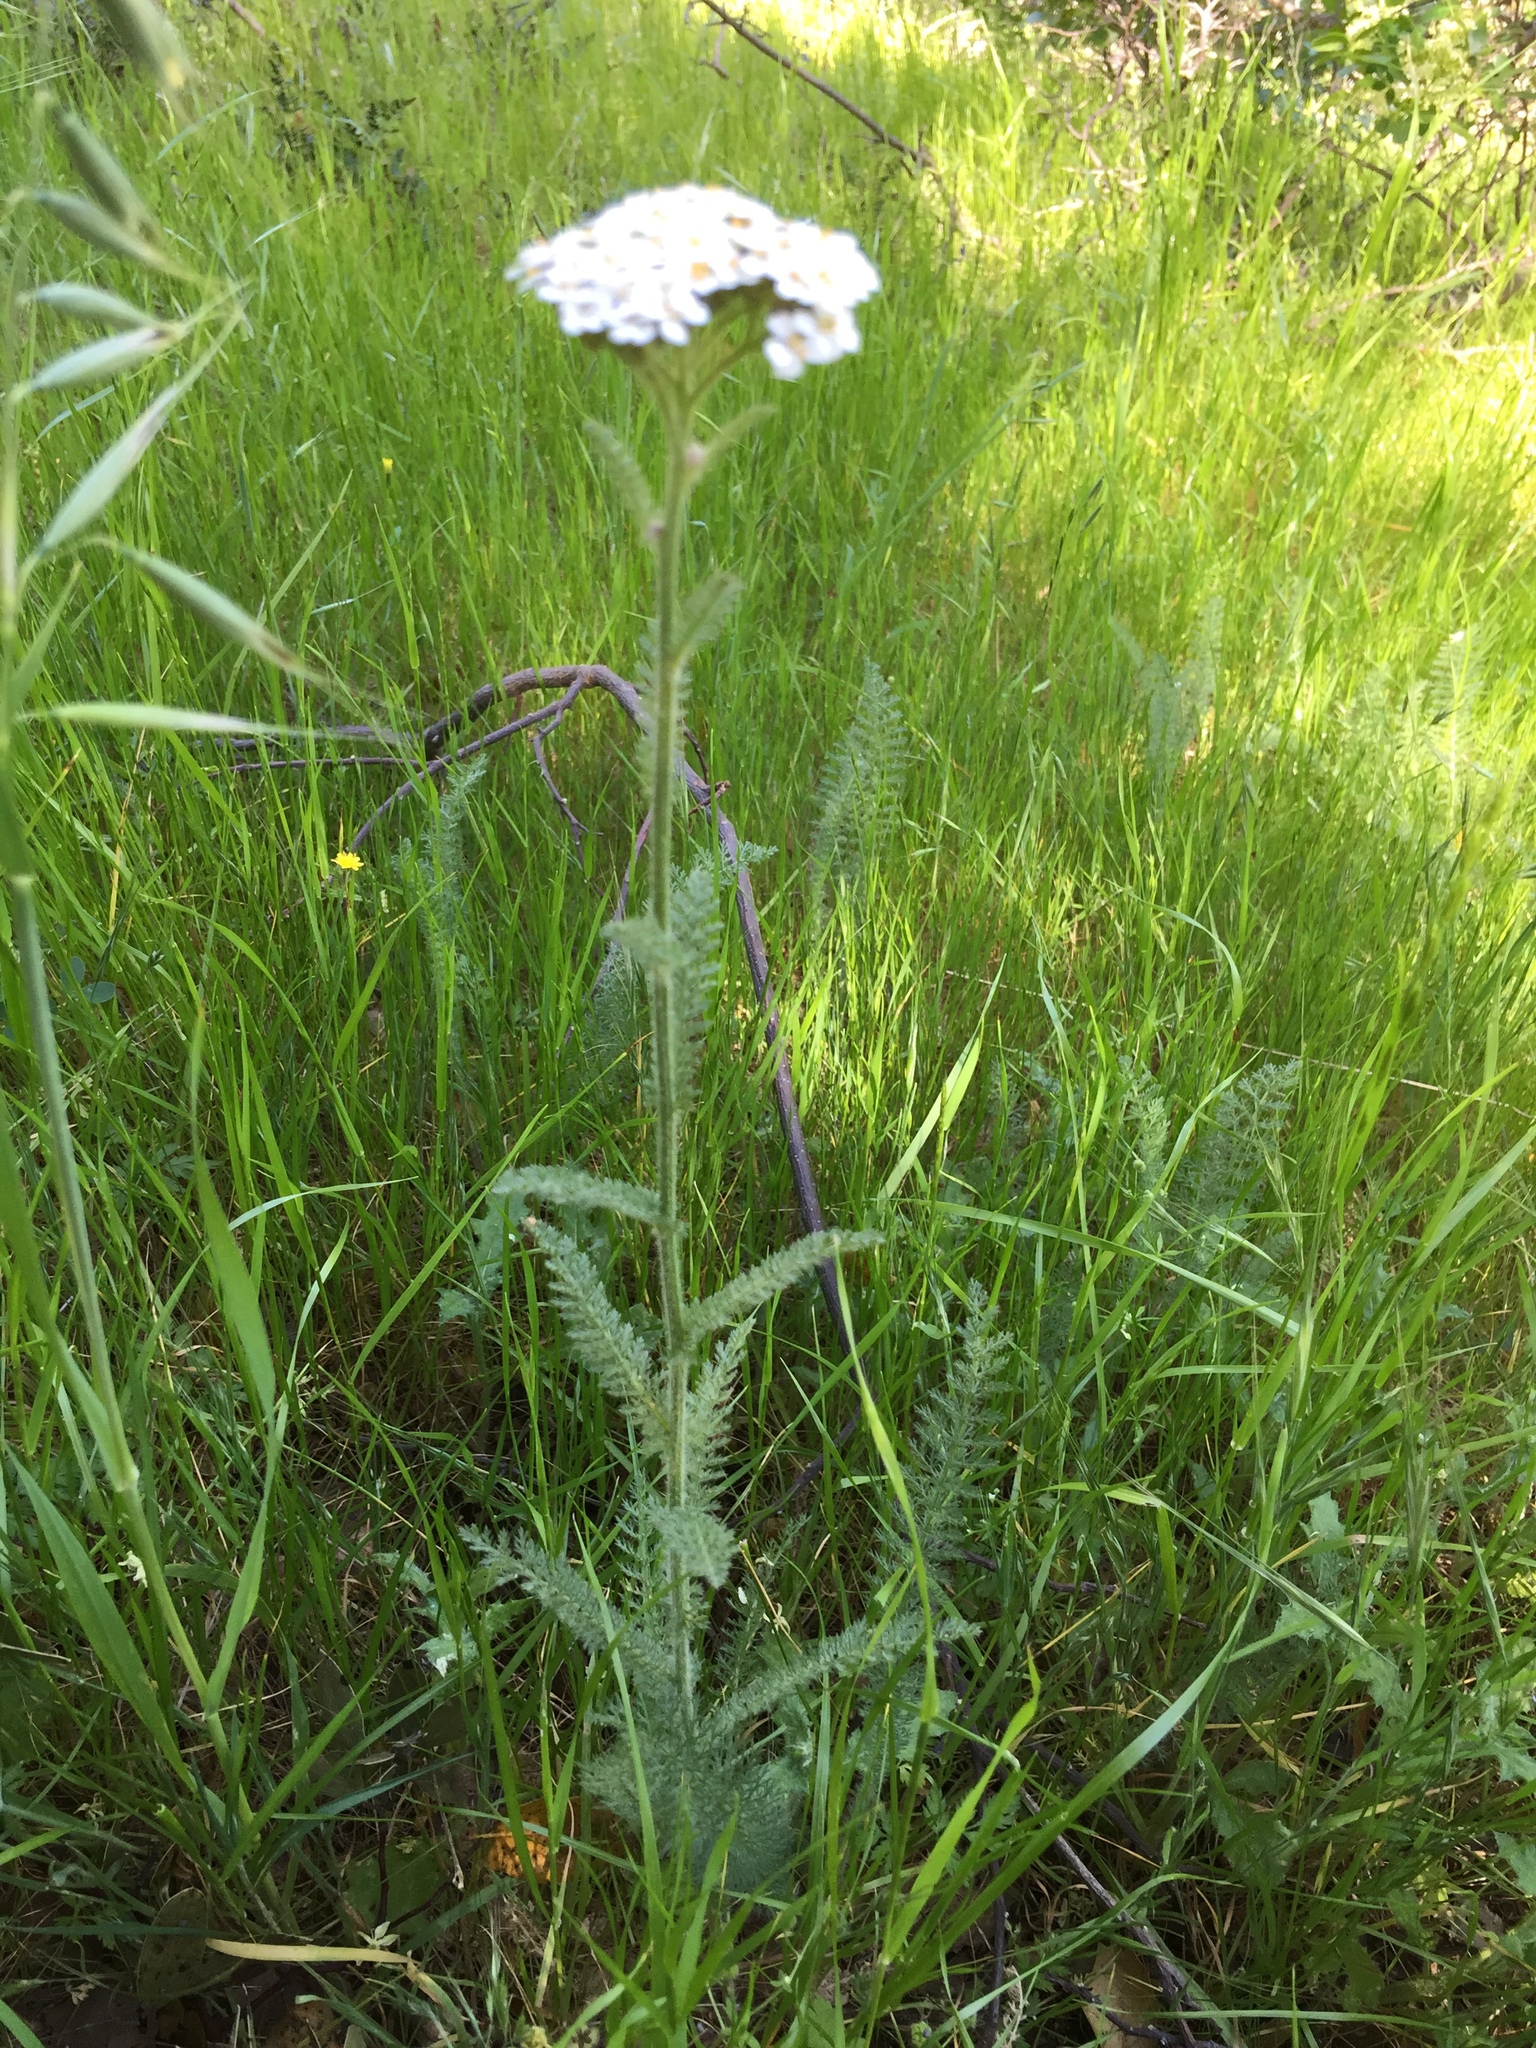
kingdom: Plantae
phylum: Tracheophyta
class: Magnoliopsida
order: Asterales
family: Asteraceae
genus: Achillea
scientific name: Achillea millefolium
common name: Yarrow
